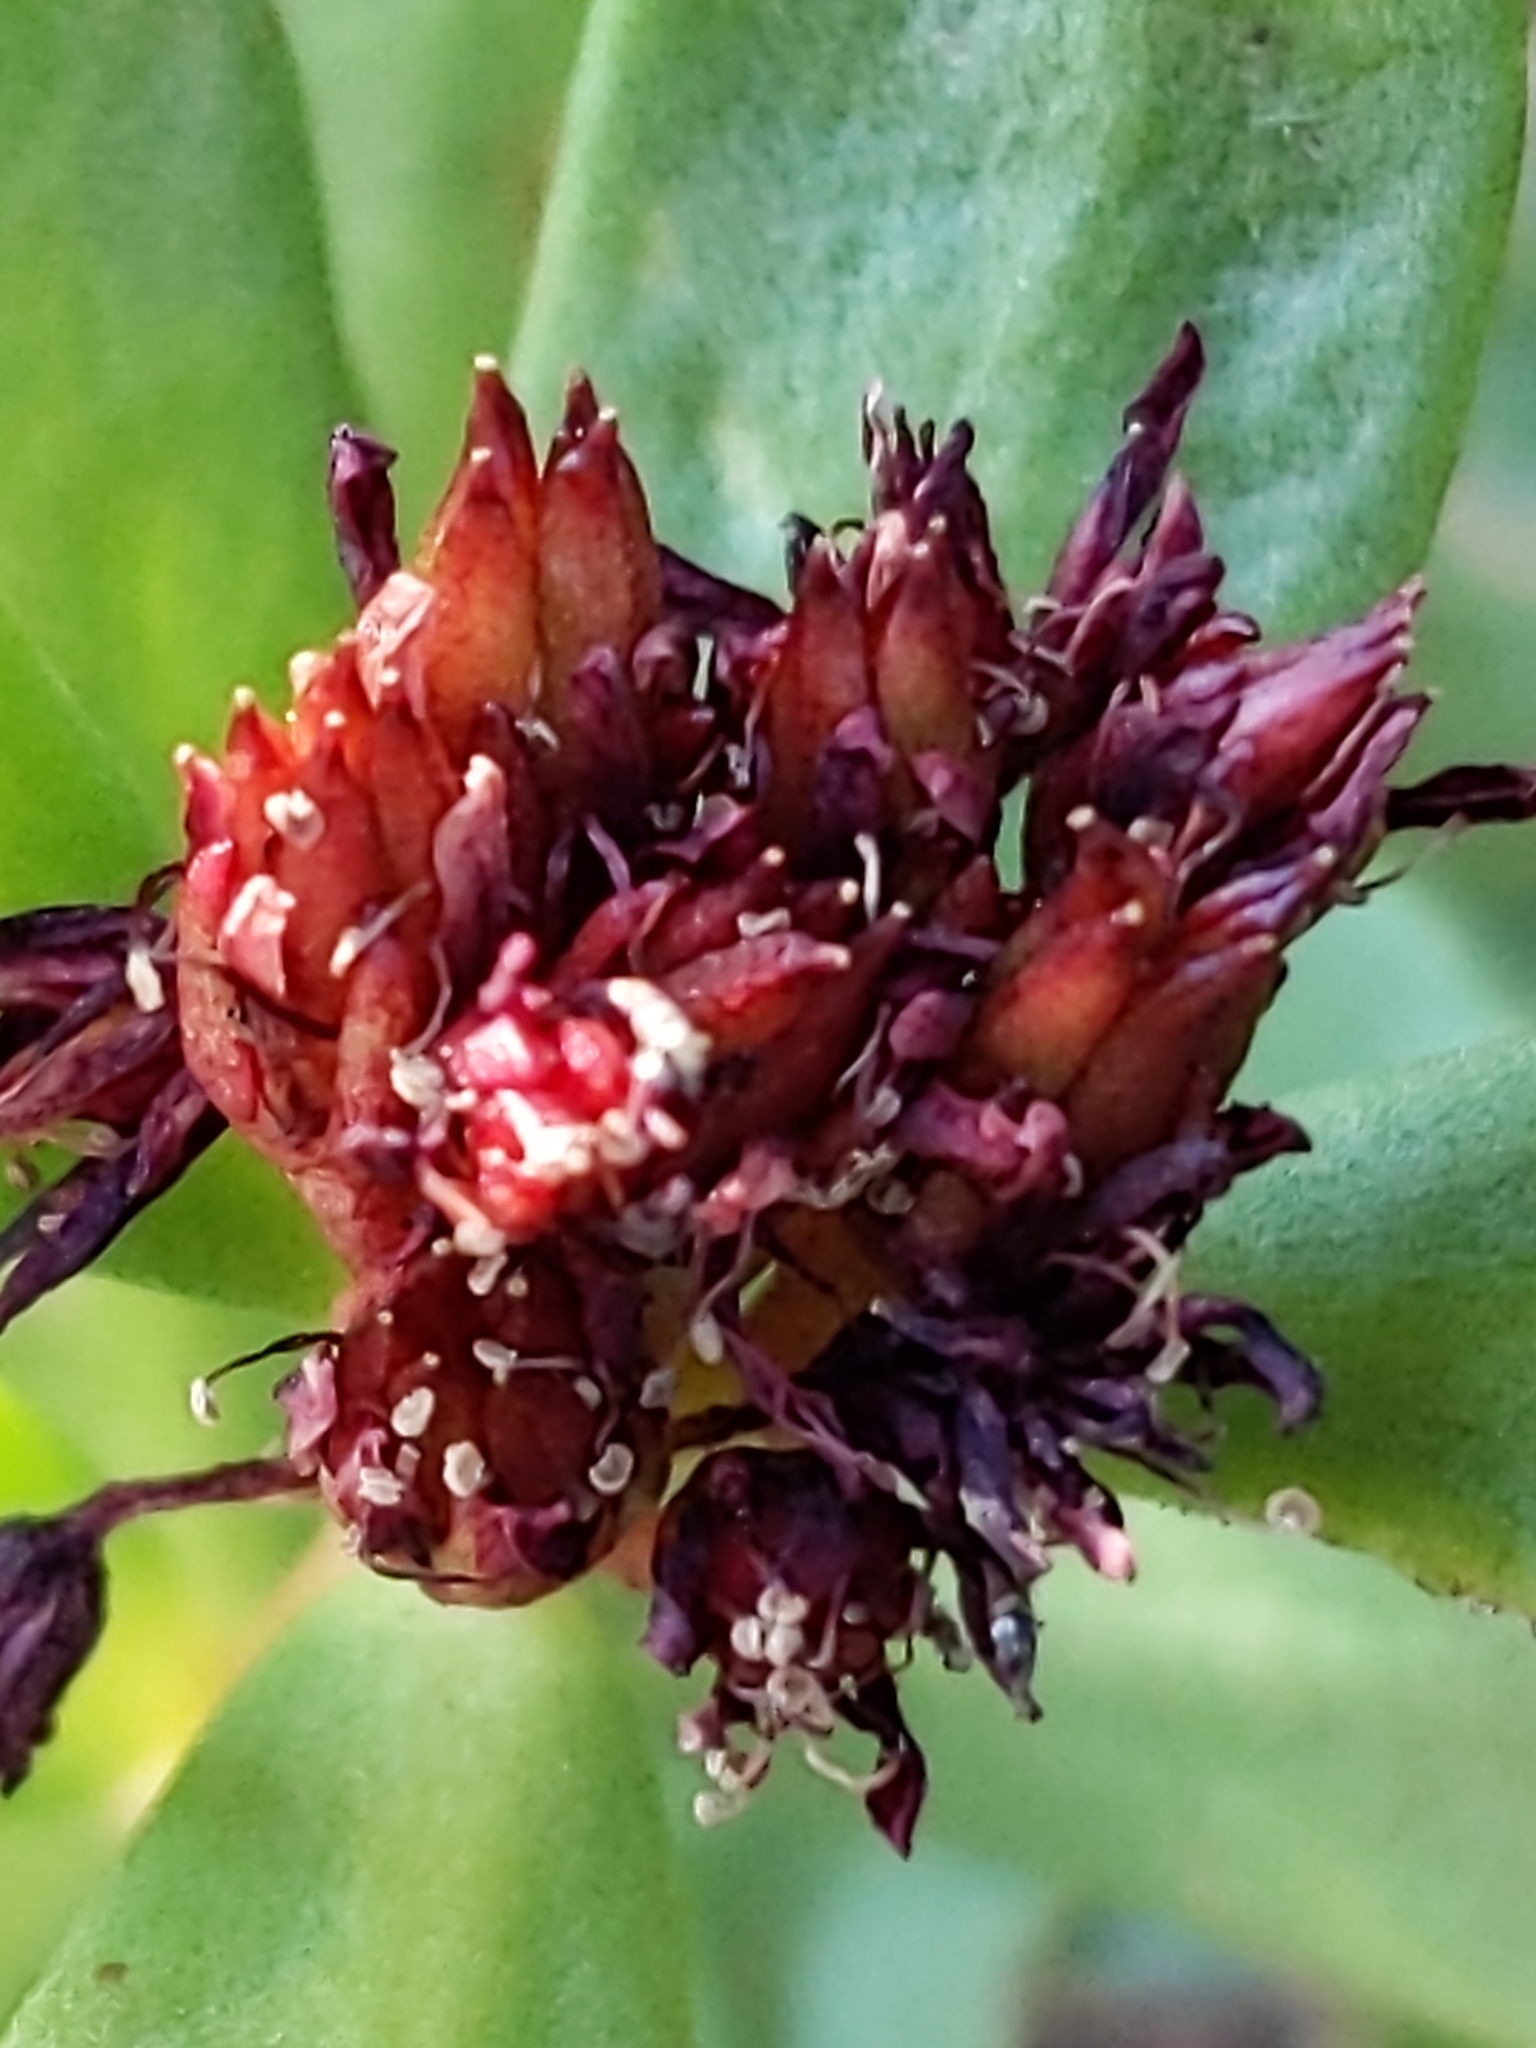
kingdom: Plantae
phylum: Tracheophyta
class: Magnoliopsida
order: Saxifragales
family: Crassulaceae
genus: Rhodiola
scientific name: Rhodiola integrifolia
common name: Western roseroot
